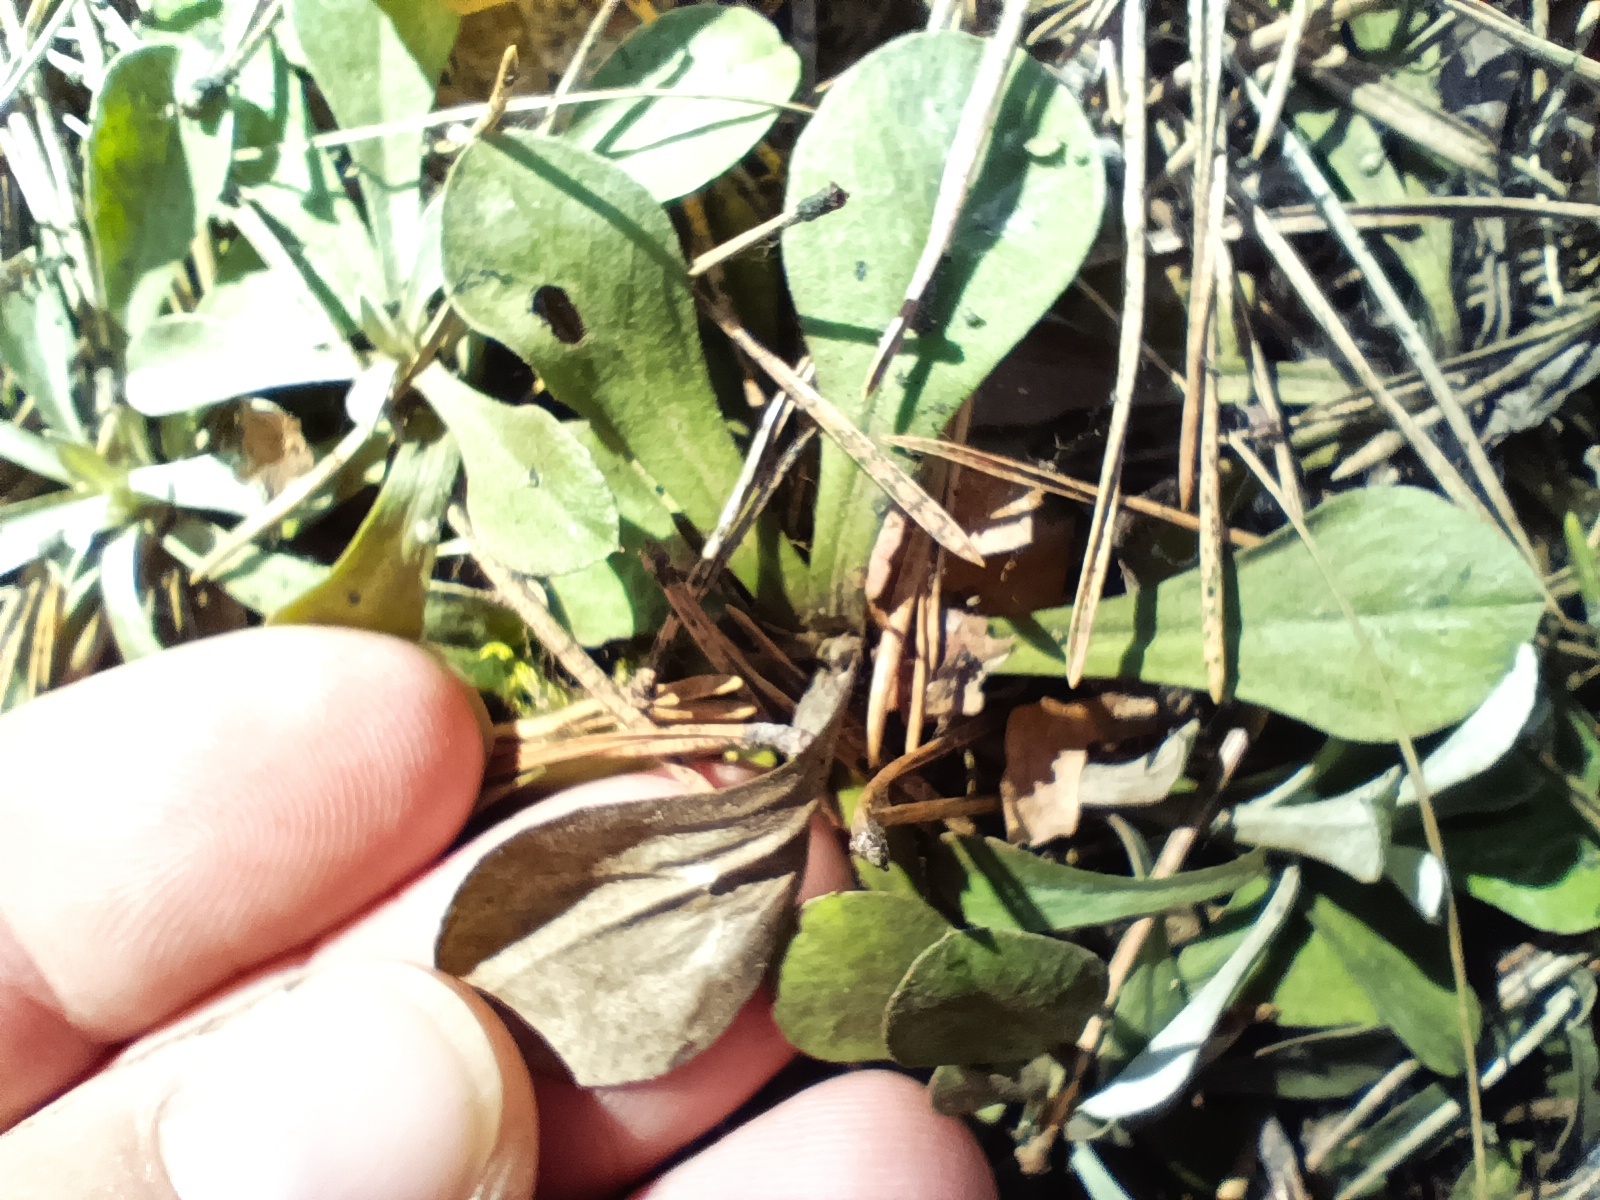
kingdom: Plantae
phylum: Tracheophyta
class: Magnoliopsida
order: Asterales
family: Asteraceae
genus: Antennaria
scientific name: Antennaria dioica
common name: Mountain everlasting
